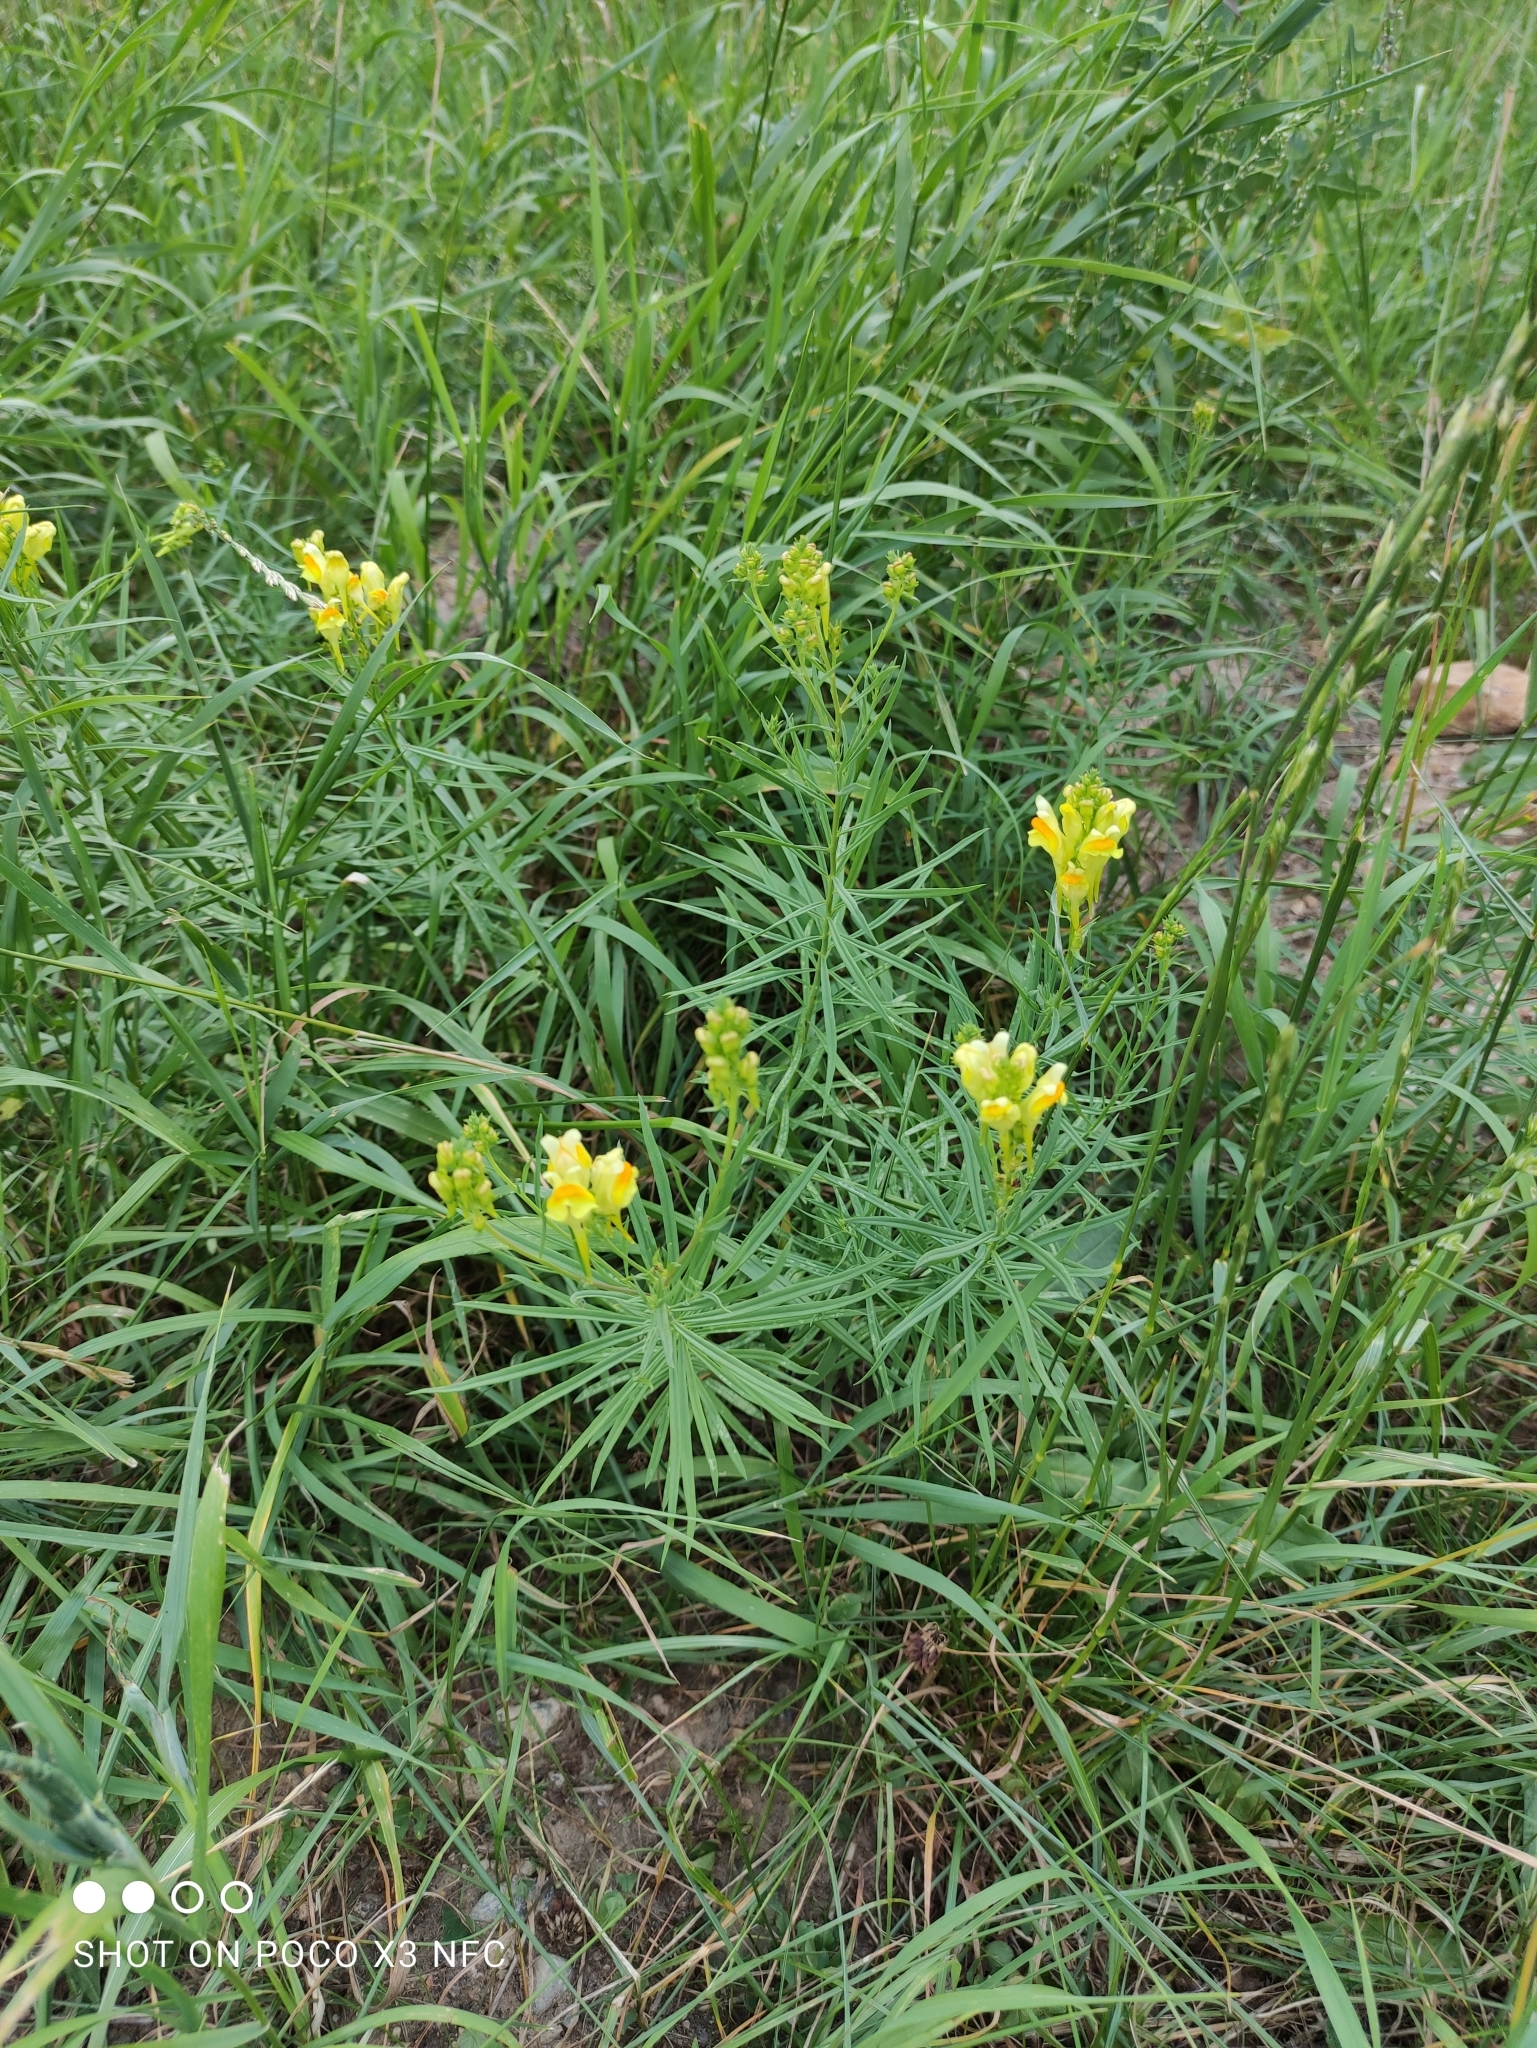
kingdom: Plantae
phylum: Tracheophyta
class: Magnoliopsida
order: Lamiales
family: Plantaginaceae
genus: Linaria
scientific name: Linaria vulgaris
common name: Butter and eggs
